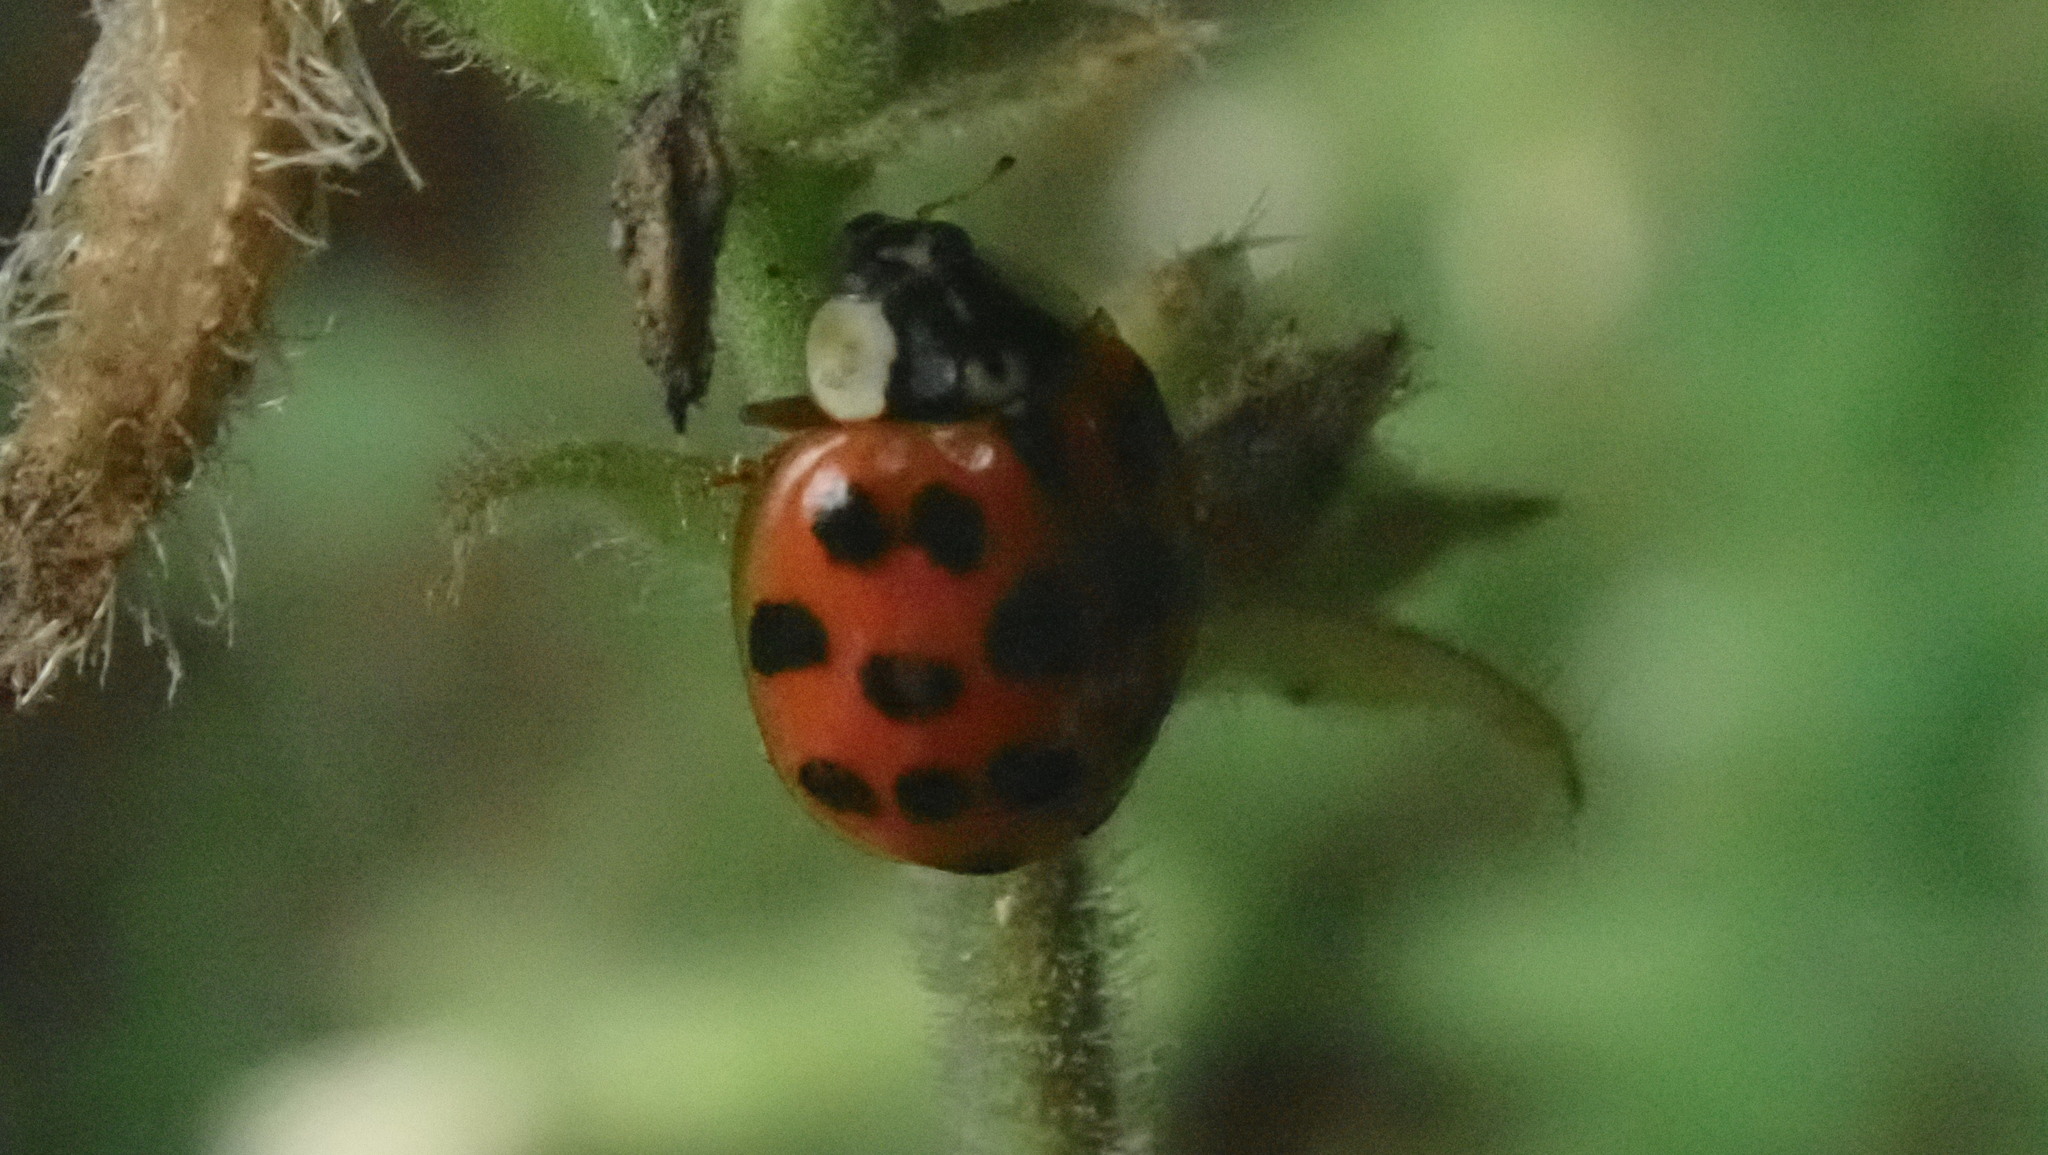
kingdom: Animalia
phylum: Arthropoda
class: Insecta
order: Coleoptera
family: Coccinellidae
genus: Harmonia
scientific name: Harmonia axyridis
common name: Harlequin ladybird
